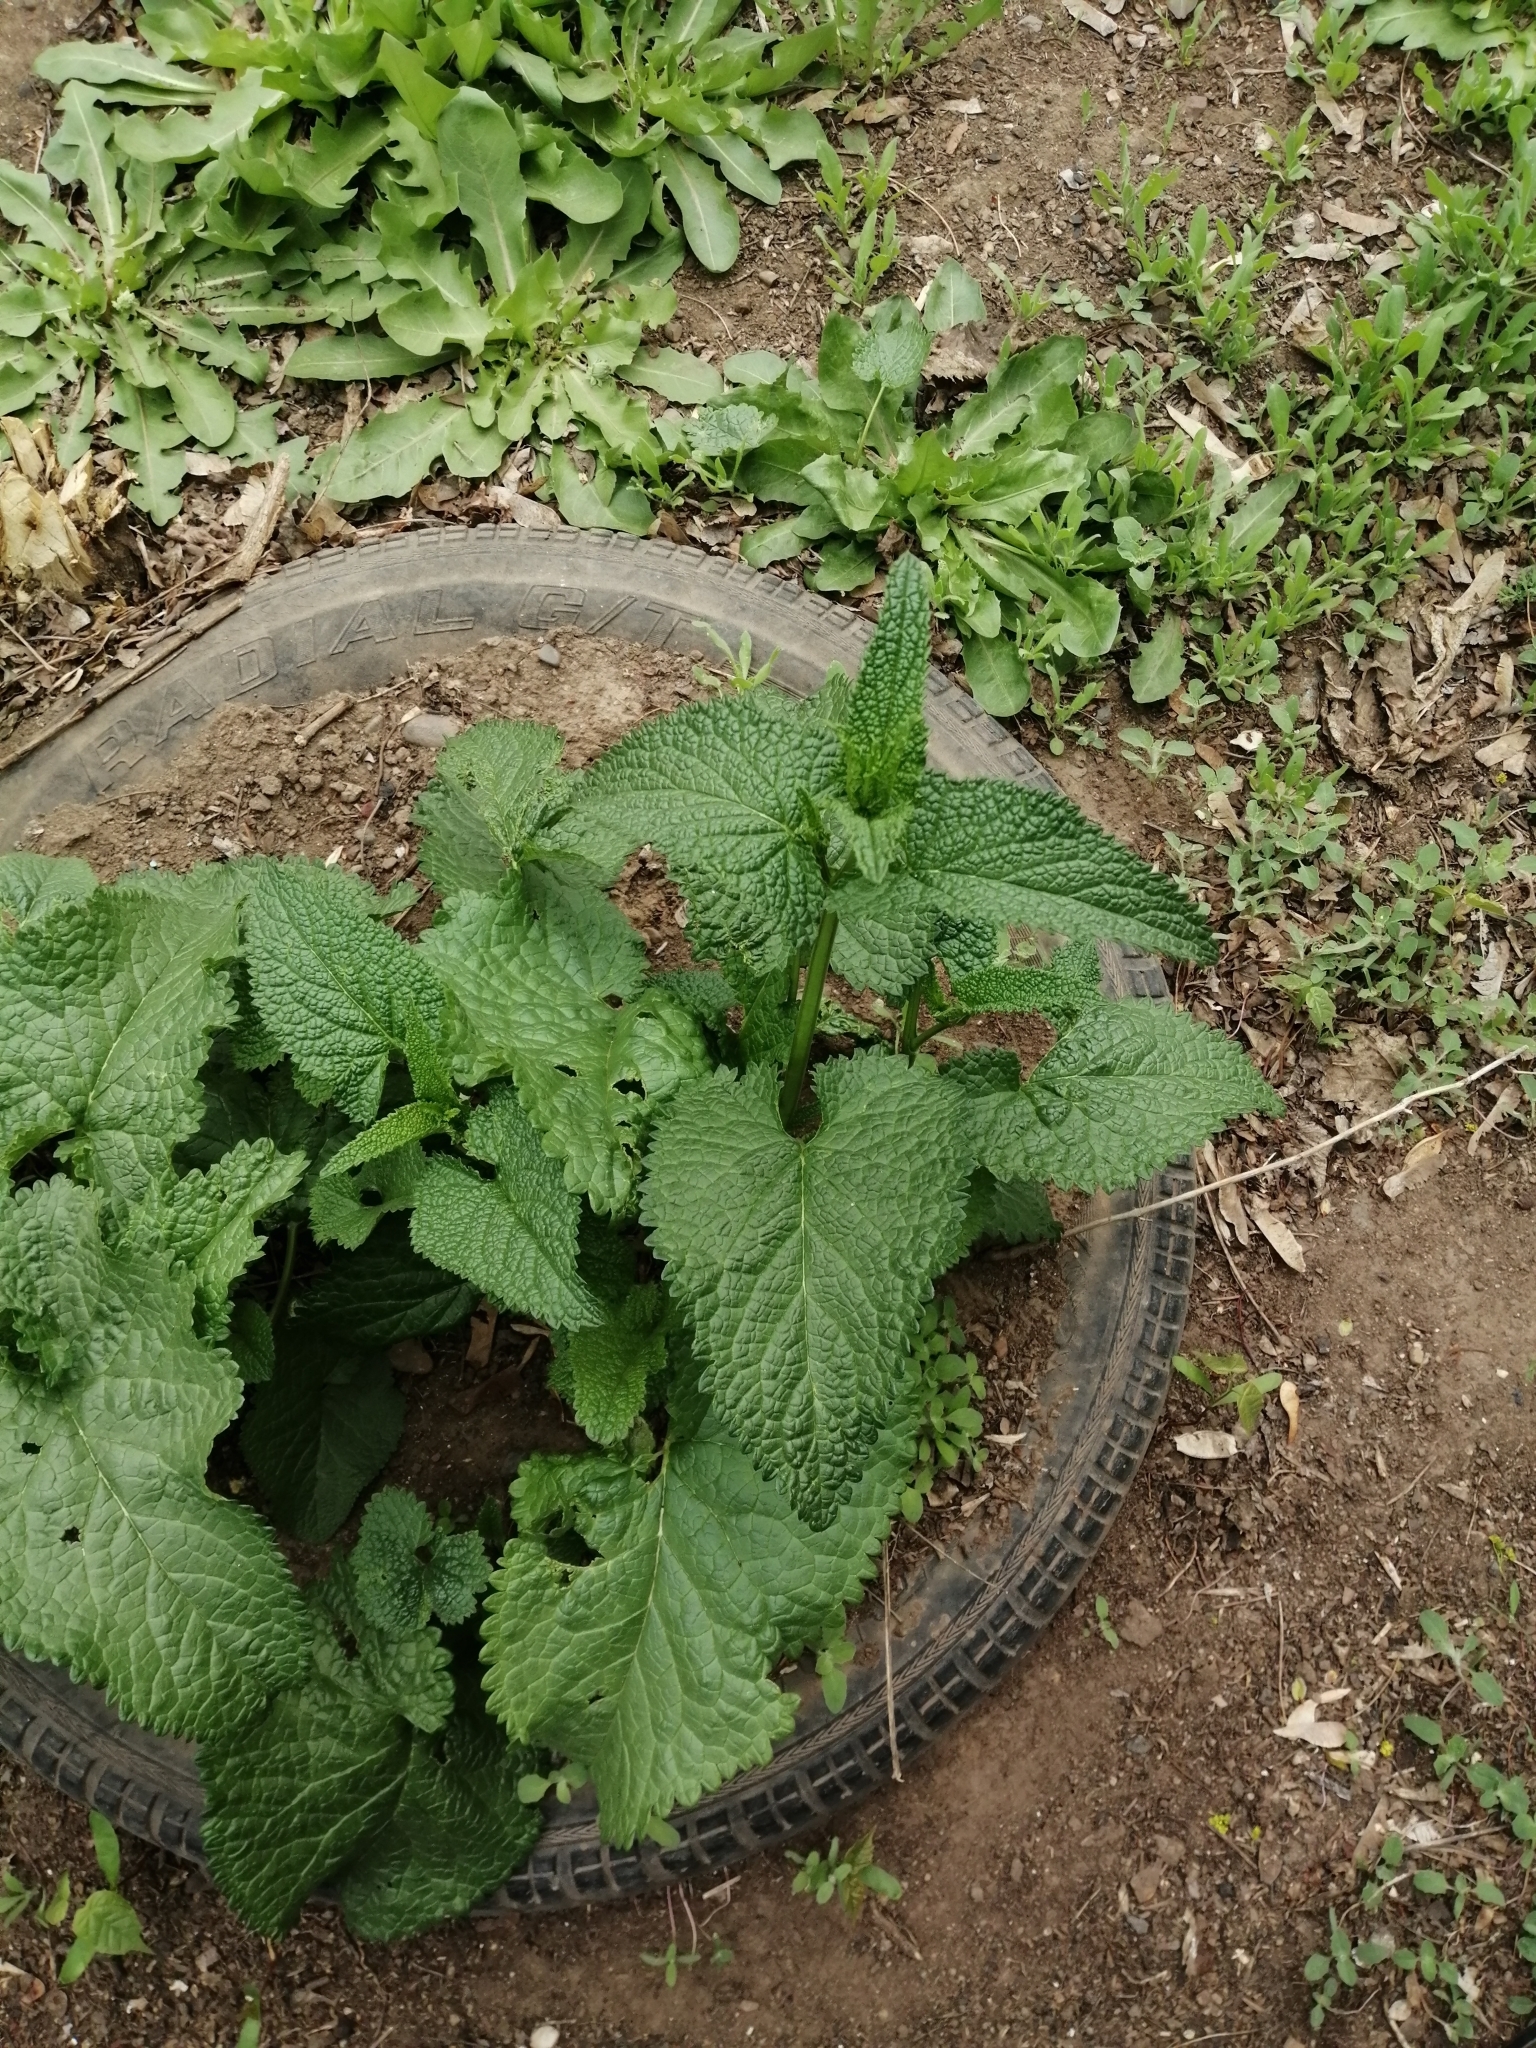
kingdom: Plantae
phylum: Tracheophyta
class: Magnoliopsida
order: Lamiales
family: Lamiaceae
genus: Phlomoides
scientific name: Phlomoides tuberosa
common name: Tuberous jerusalem sage
